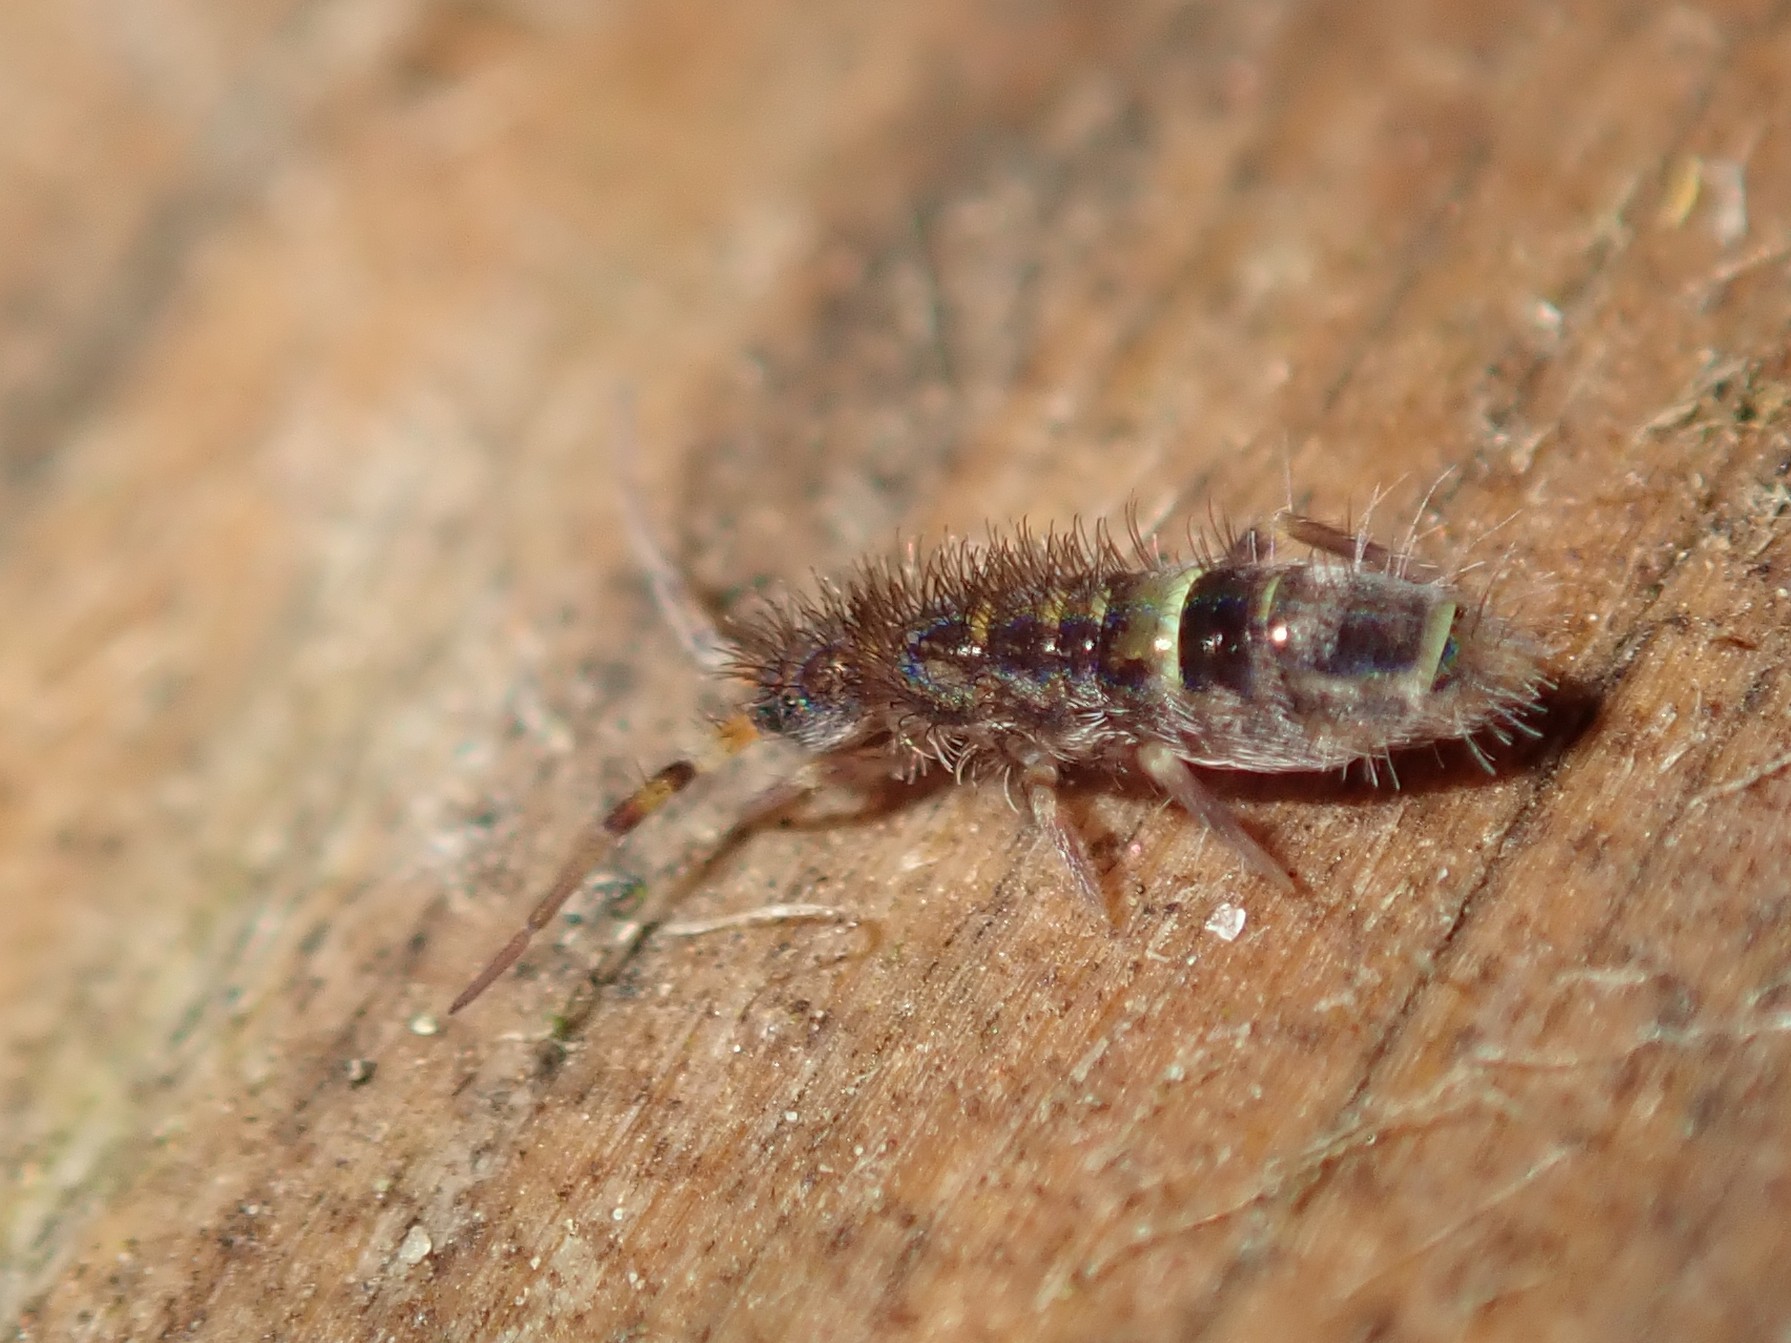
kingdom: Animalia
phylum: Arthropoda
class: Collembola
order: Entomobryomorpha
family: Orchesellidae
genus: Orchesella
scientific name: Orchesella cincta
